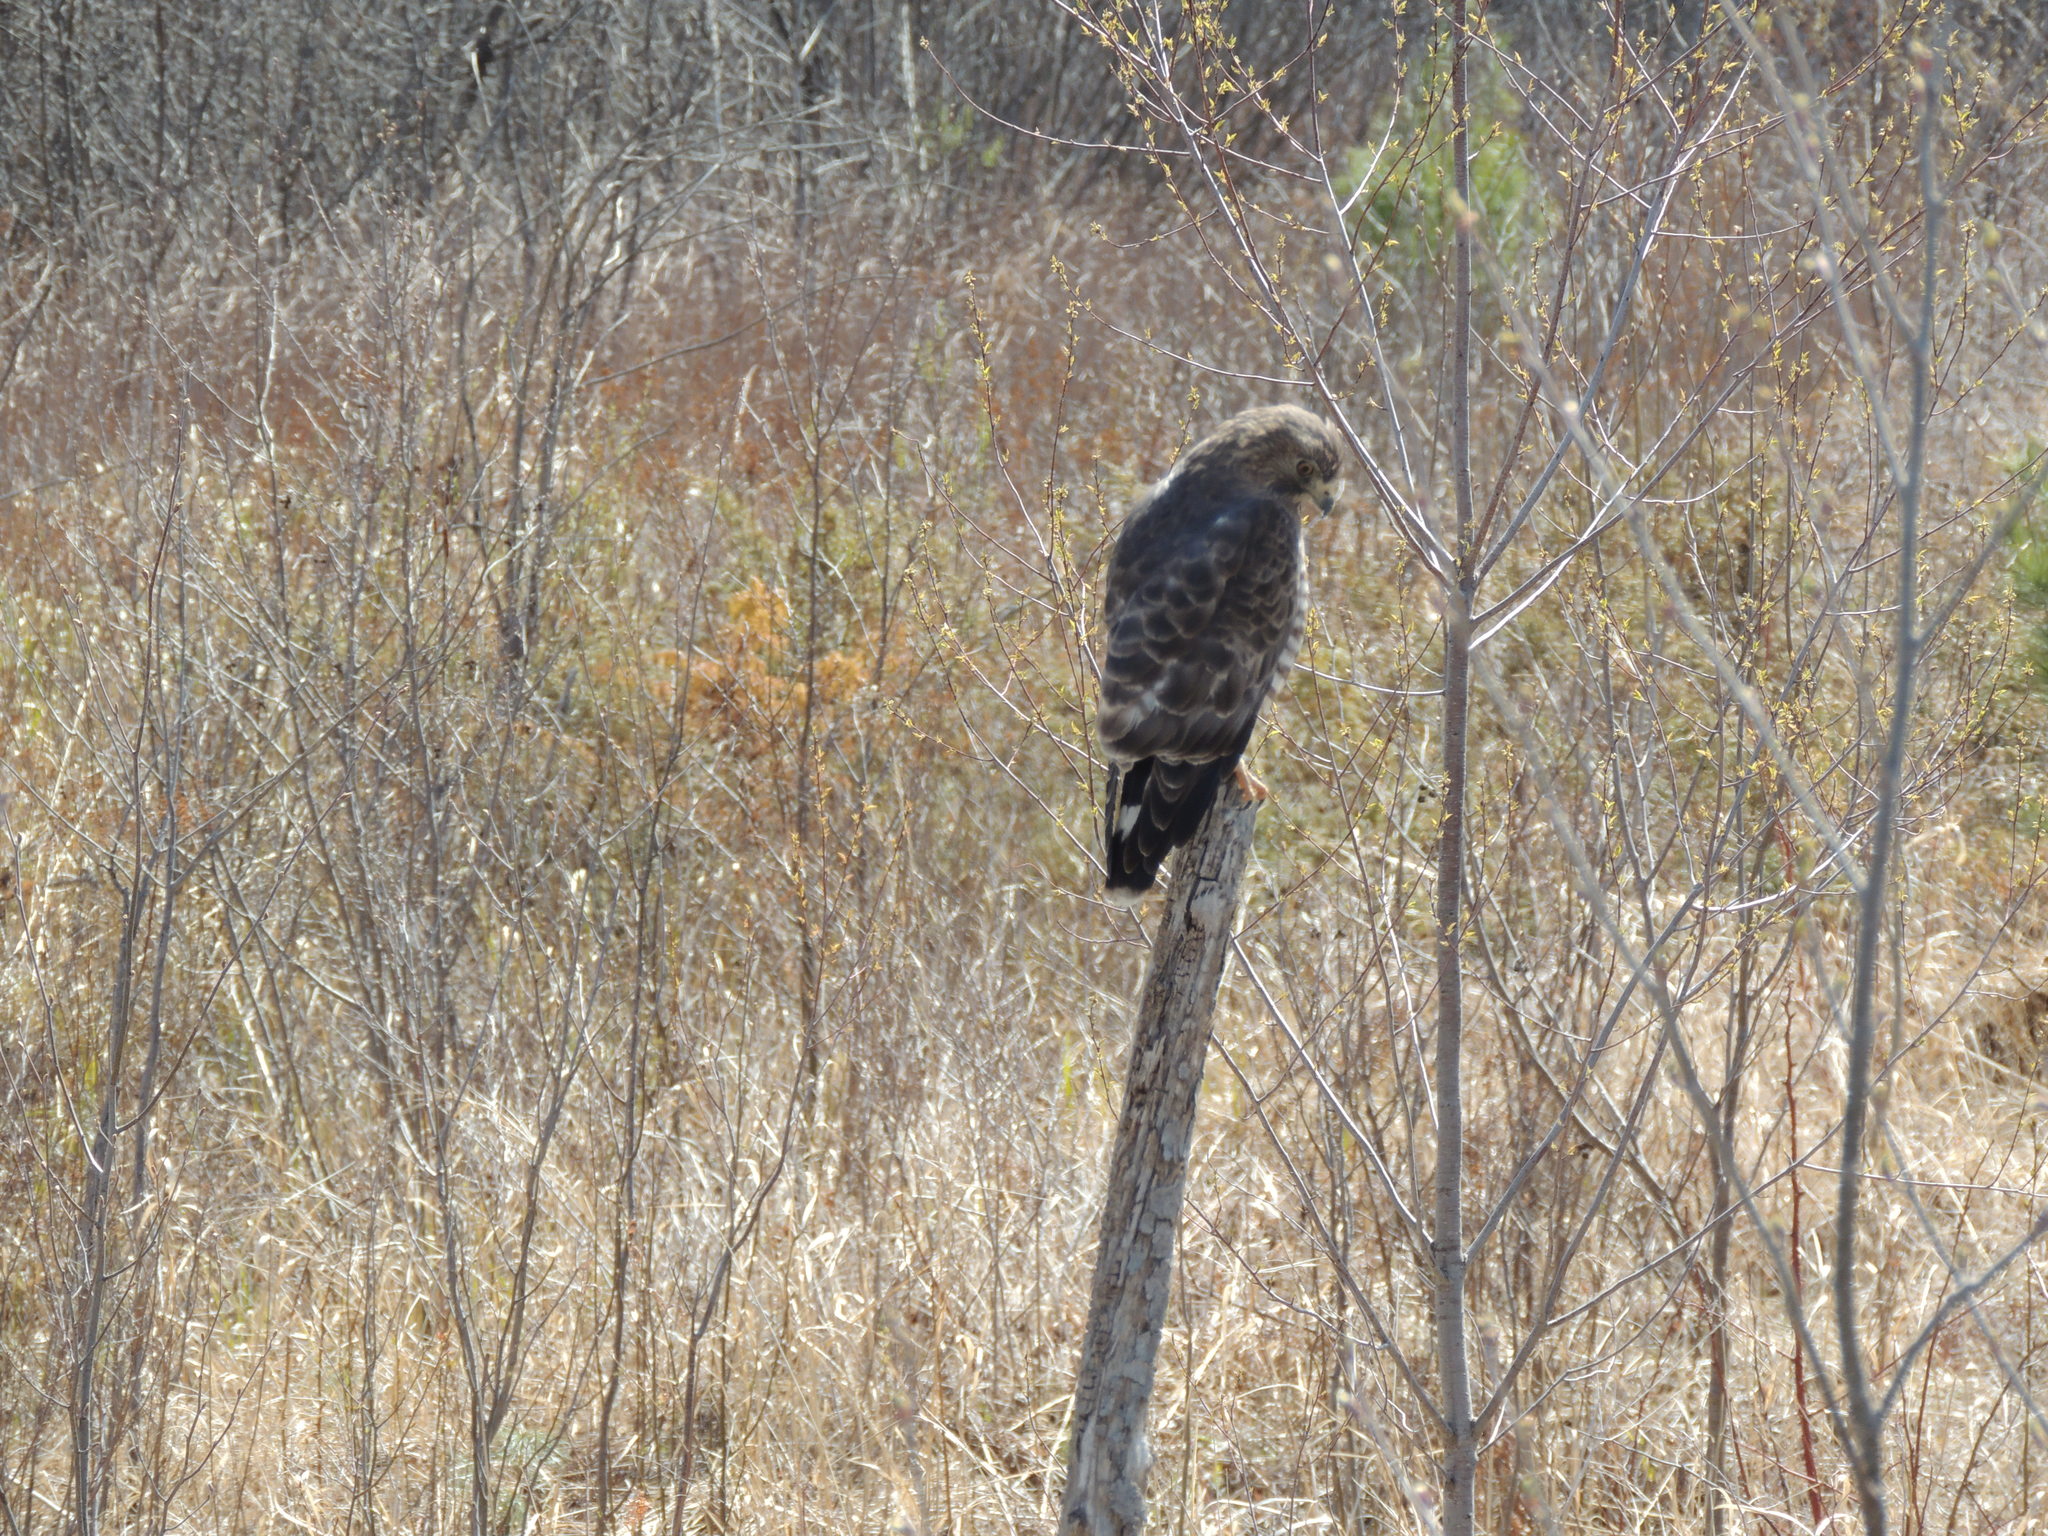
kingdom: Animalia
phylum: Chordata
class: Aves
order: Accipitriformes
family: Accipitridae
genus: Buteo
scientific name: Buteo platypterus
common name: Broad-winged hawk
